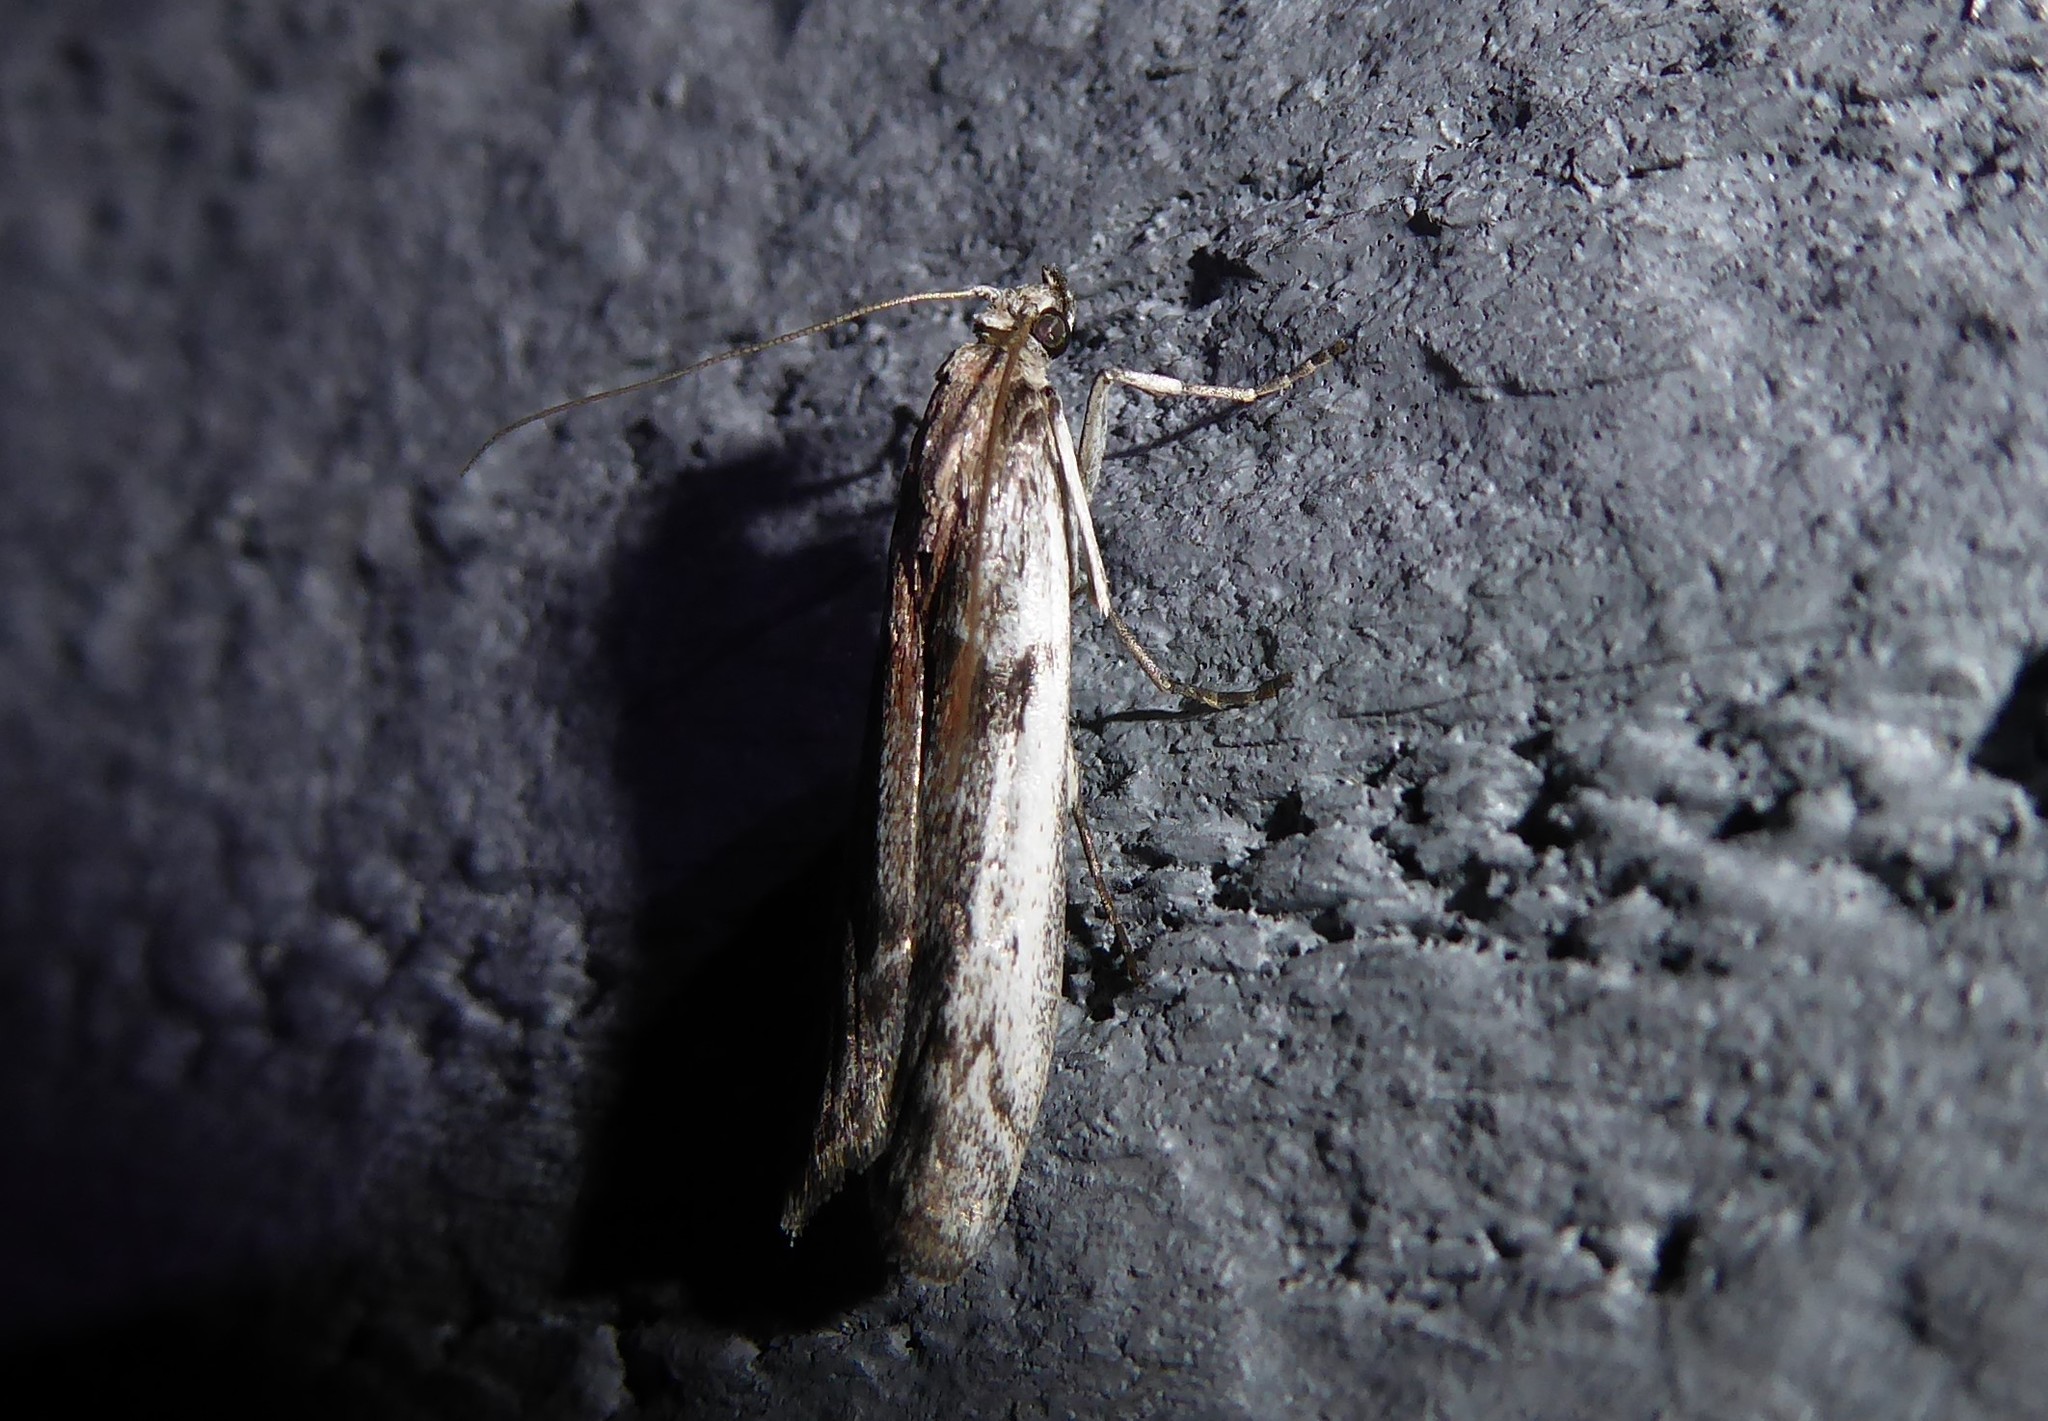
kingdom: Animalia
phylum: Arthropoda
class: Insecta
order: Lepidoptera
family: Pyralidae
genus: Patagoniodes
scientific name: Patagoniodes farinaria
